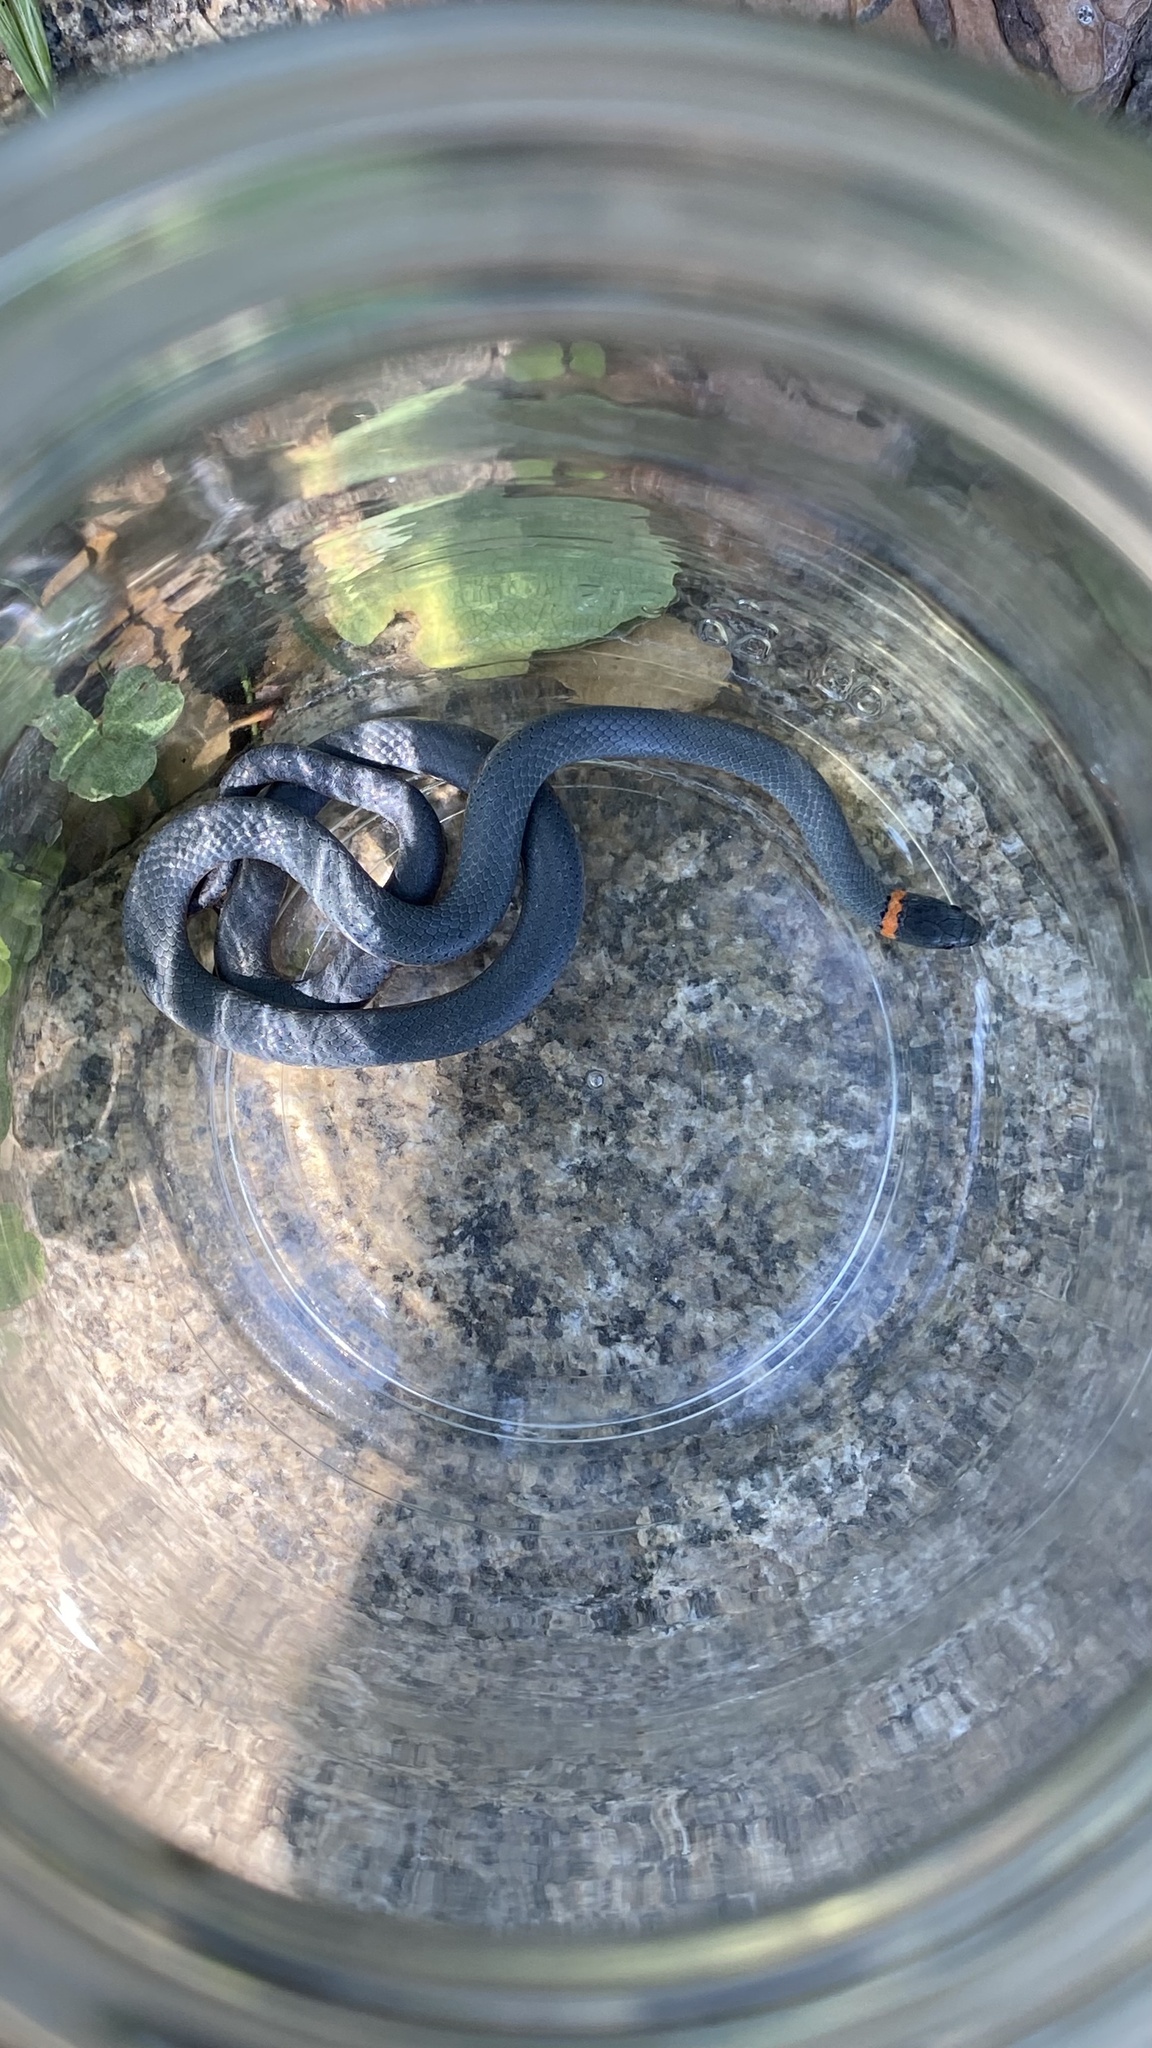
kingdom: Animalia
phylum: Chordata
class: Squamata
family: Colubridae
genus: Diadophis
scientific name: Diadophis punctatus
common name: Ringneck snake
